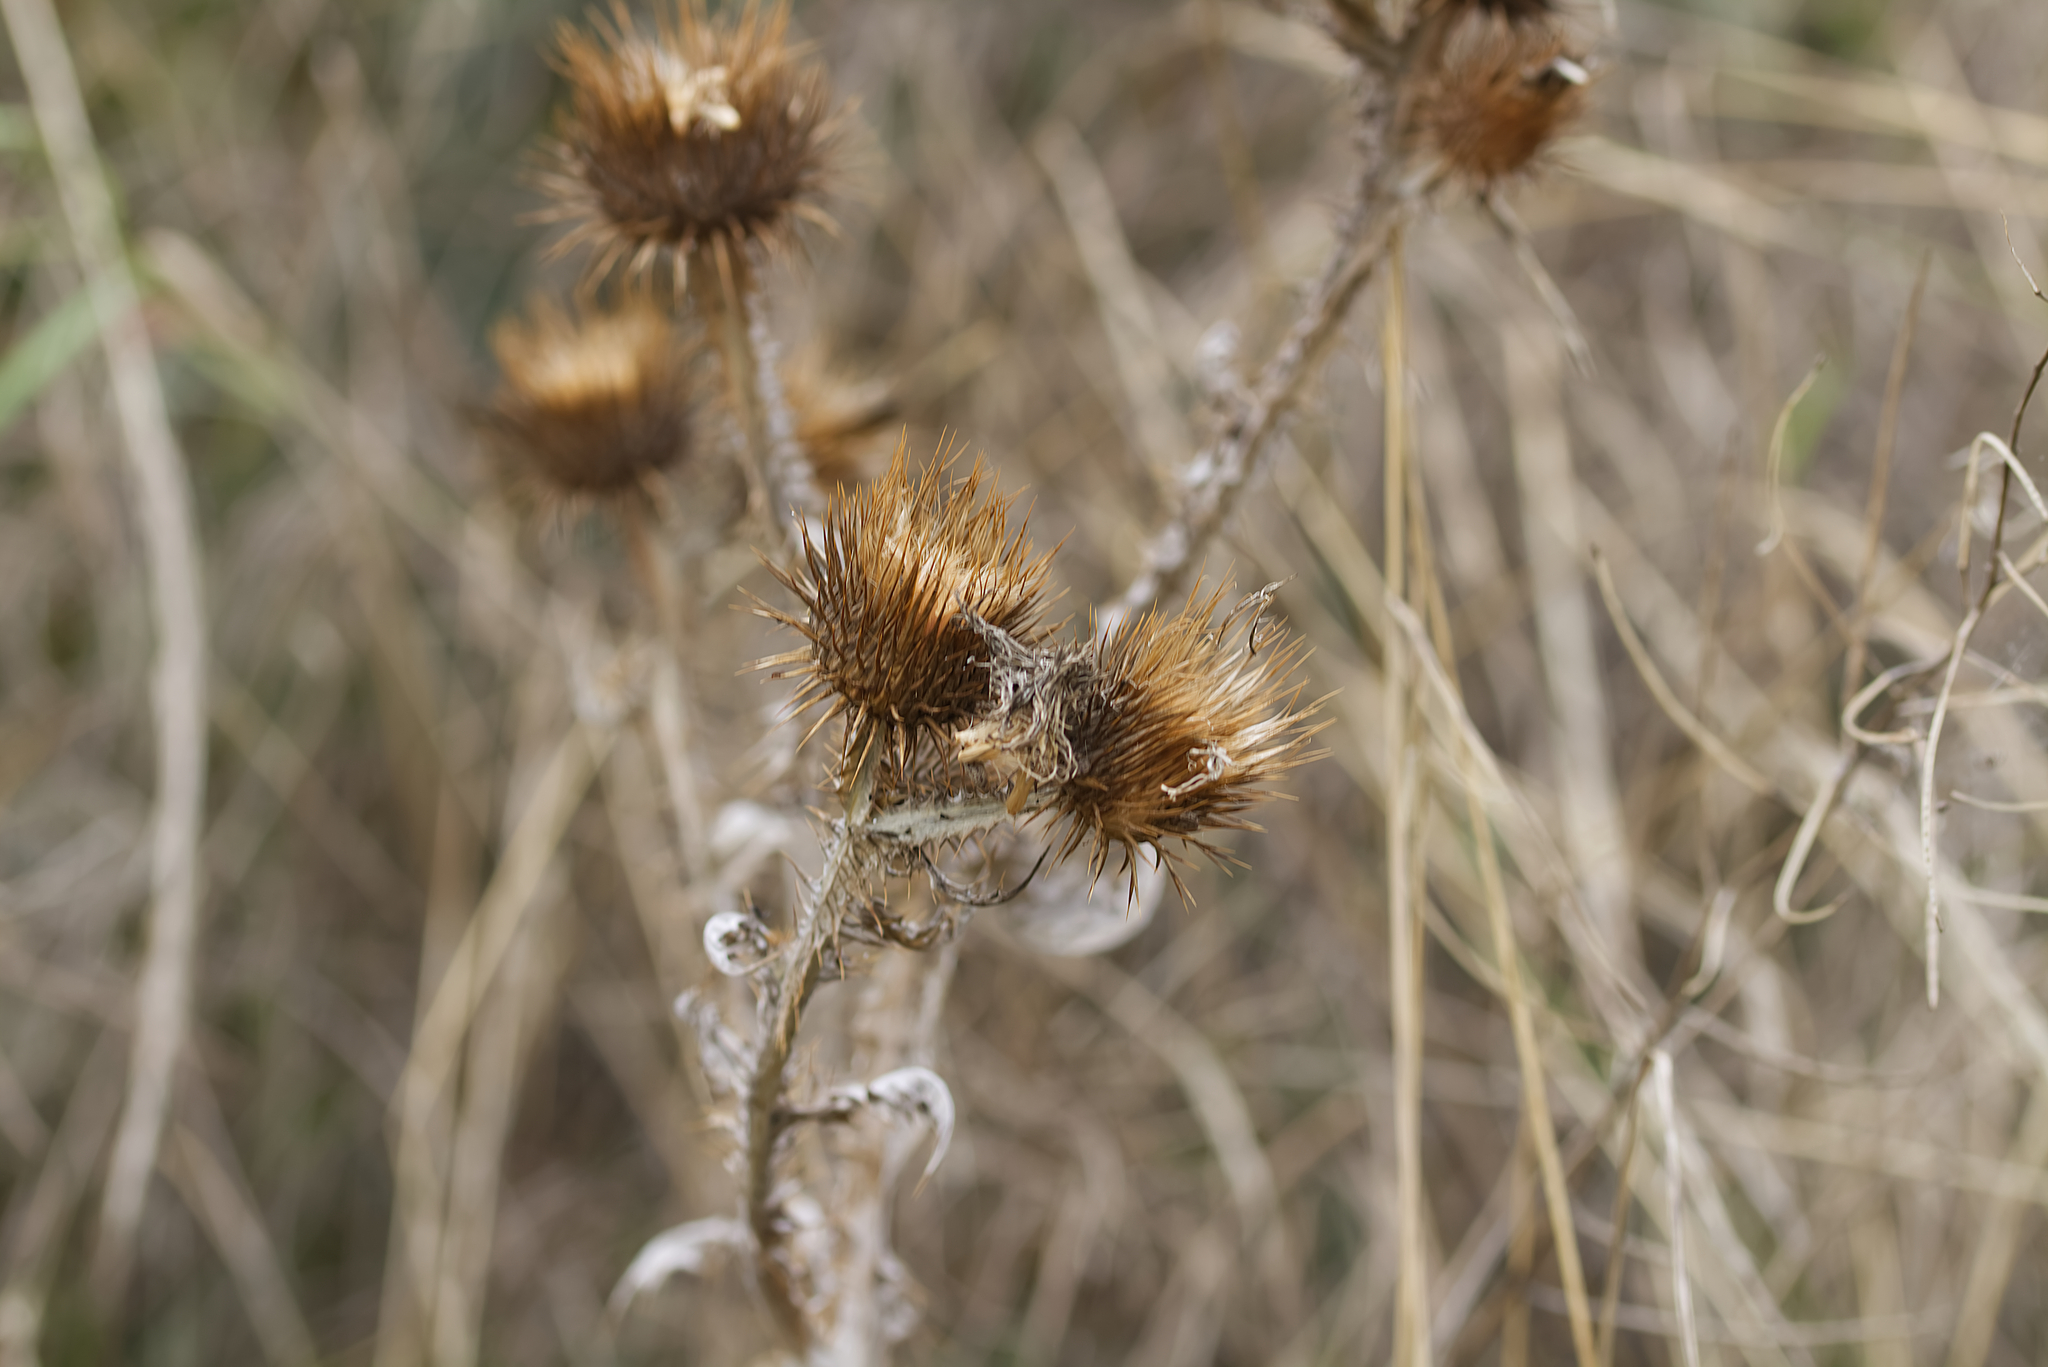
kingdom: Plantae
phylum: Tracheophyta
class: Magnoliopsida
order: Asterales
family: Asteraceae
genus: Onopordum
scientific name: Onopordum acanthium
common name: Scotch thistle
